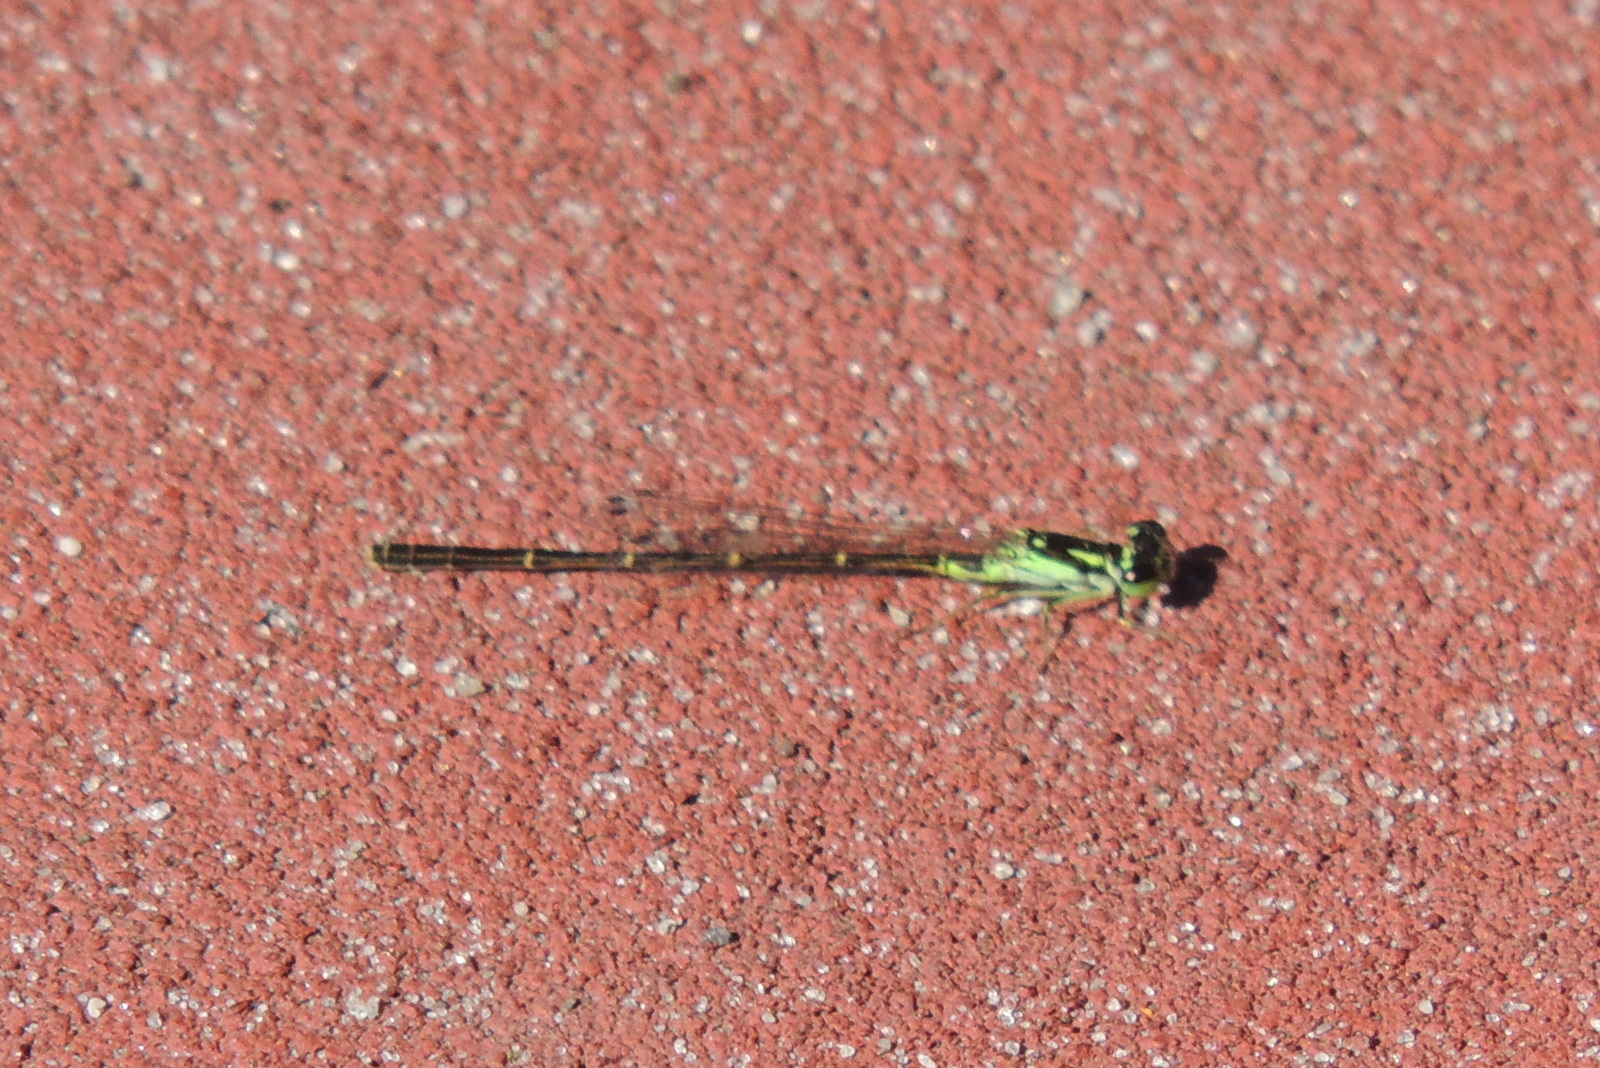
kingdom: Animalia
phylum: Arthropoda
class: Insecta
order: Odonata
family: Coenagrionidae
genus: Ischnura
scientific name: Ischnura posita
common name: Fragile forktail
